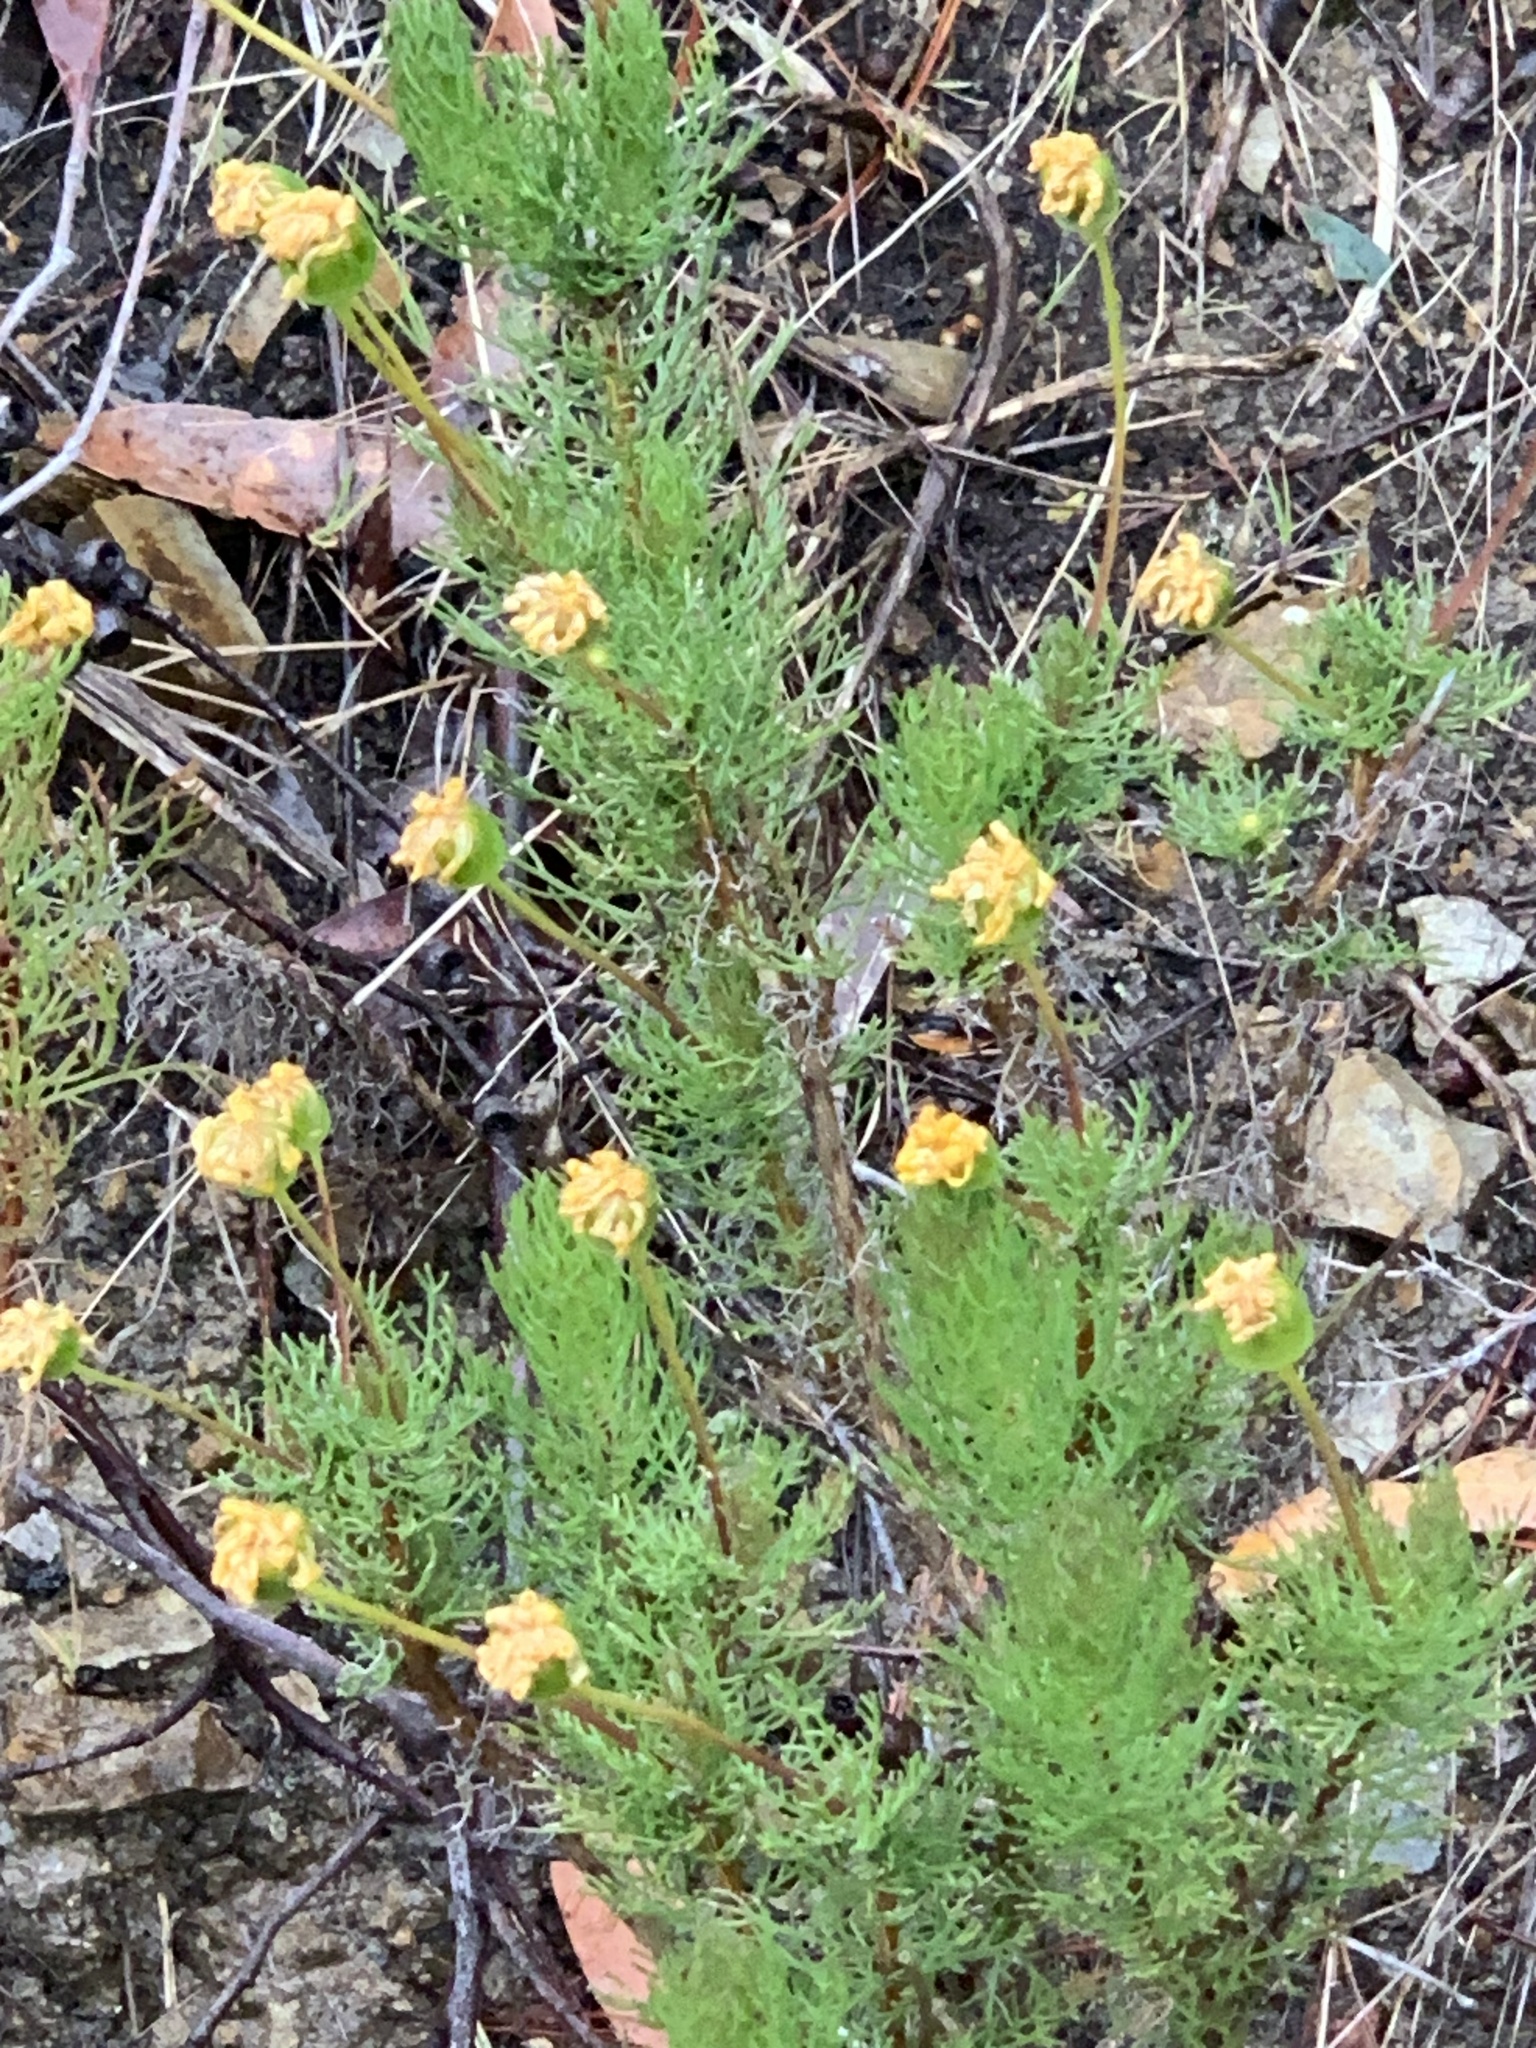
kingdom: Plantae
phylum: Tracheophyta
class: Magnoliopsida
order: Asterales
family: Asteraceae
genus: Euryops
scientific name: Euryops abrotanifolius
